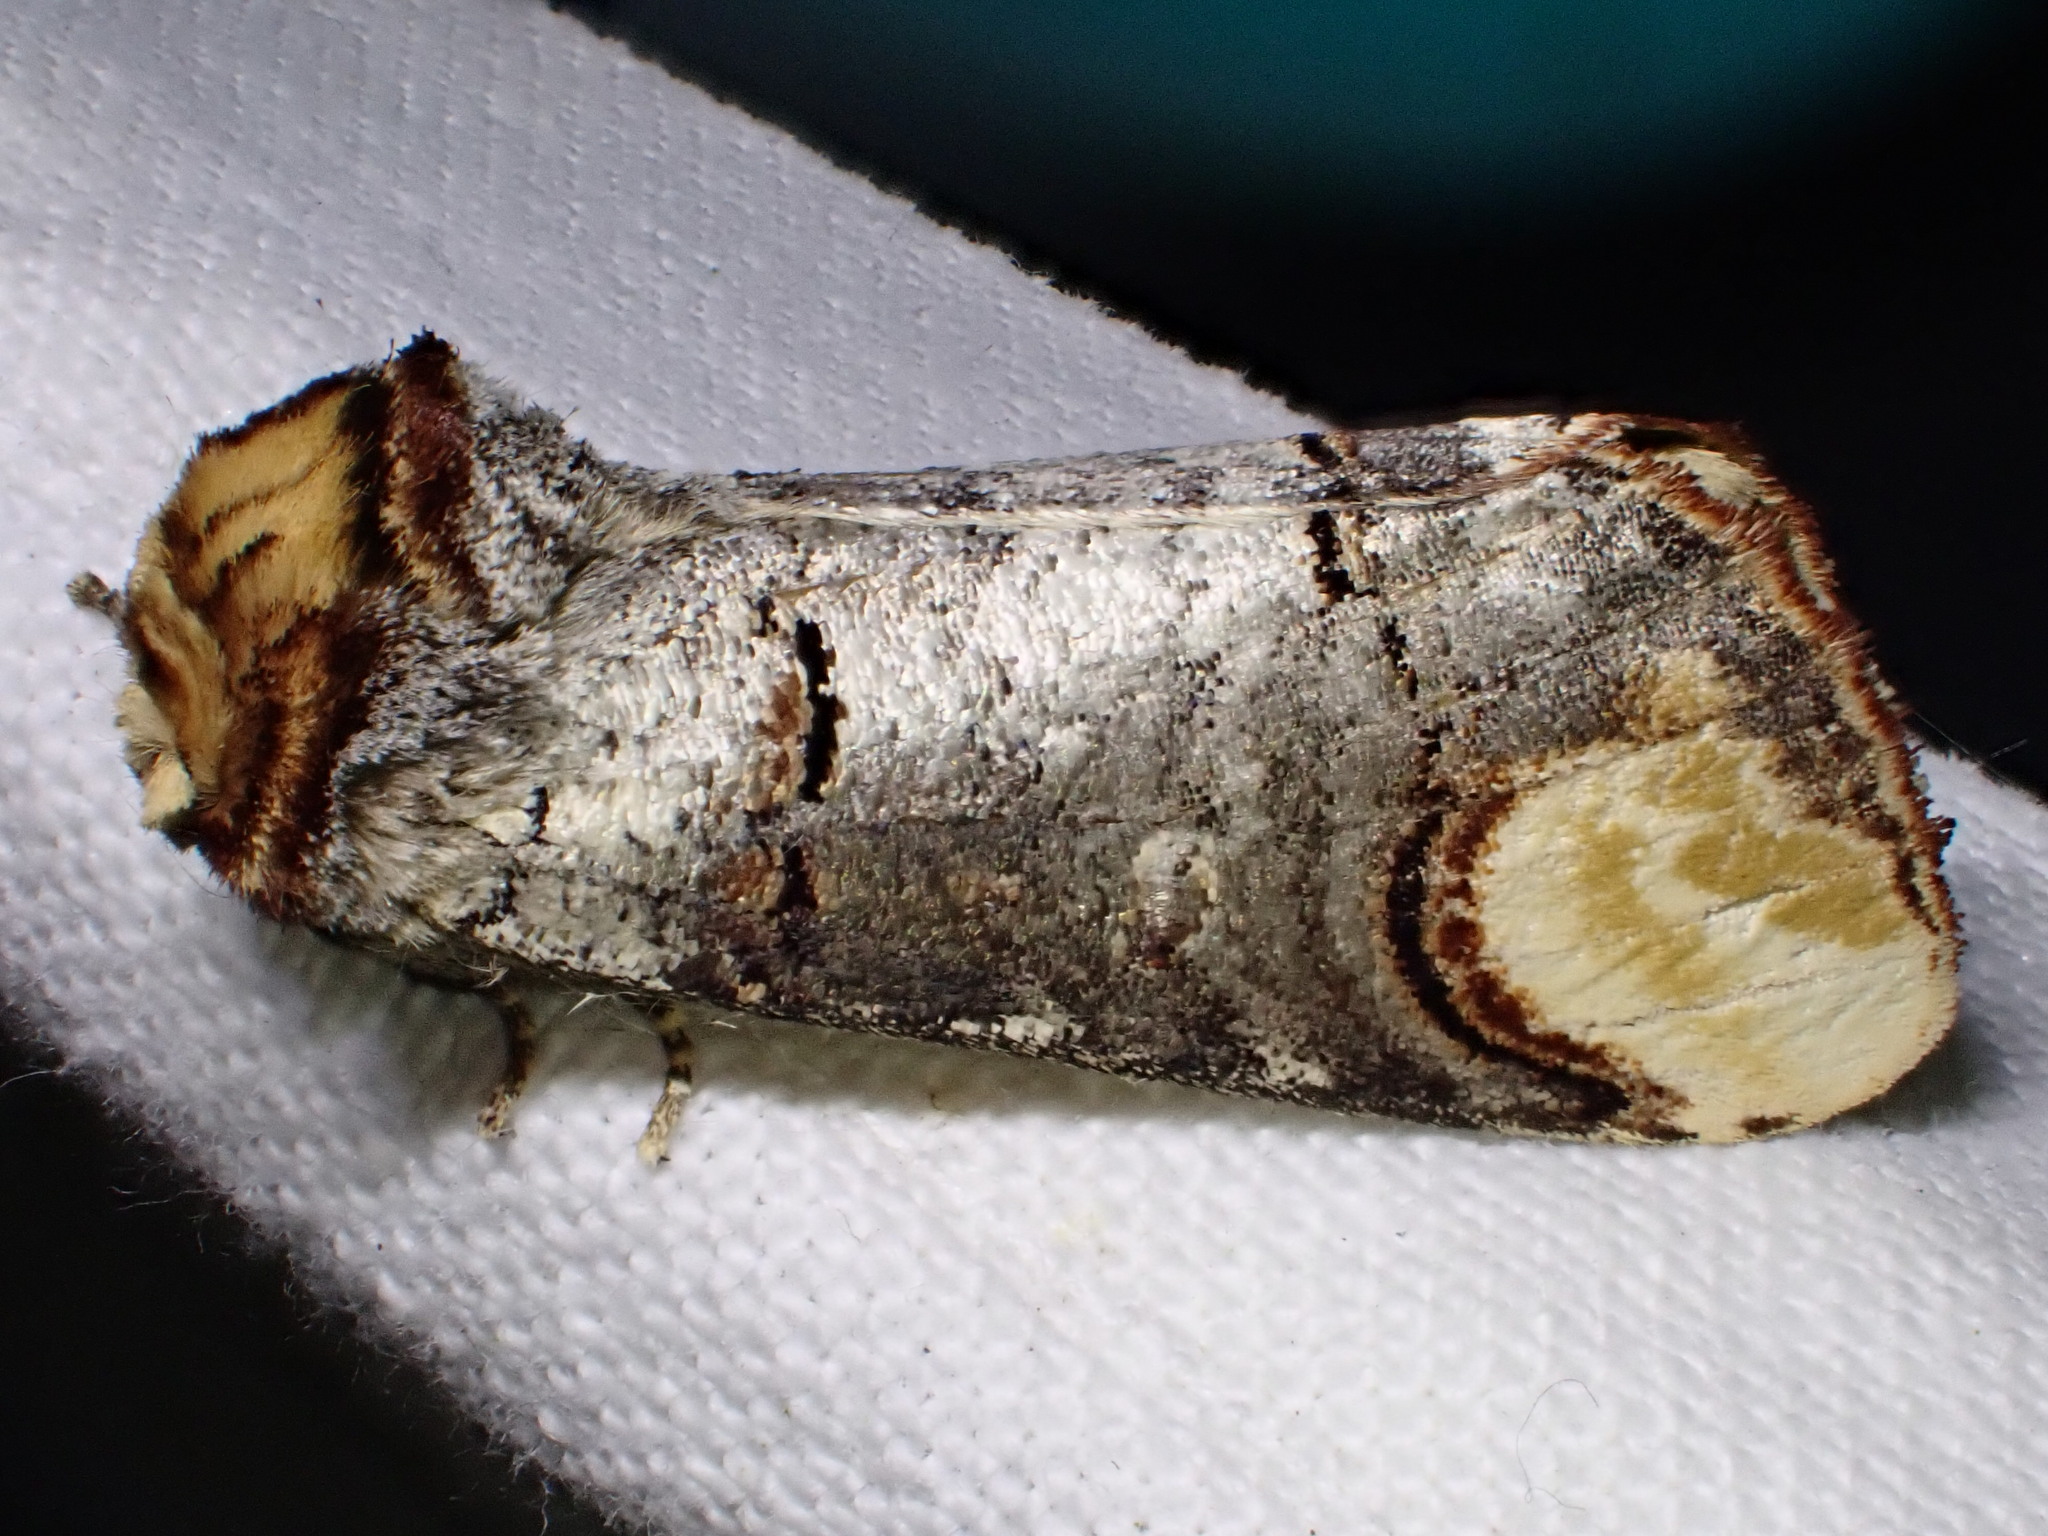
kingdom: Animalia
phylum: Arthropoda
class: Insecta
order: Lepidoptera
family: Notodontidae
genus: Phalera
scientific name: Phalera bucephala
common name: Buff-tip
